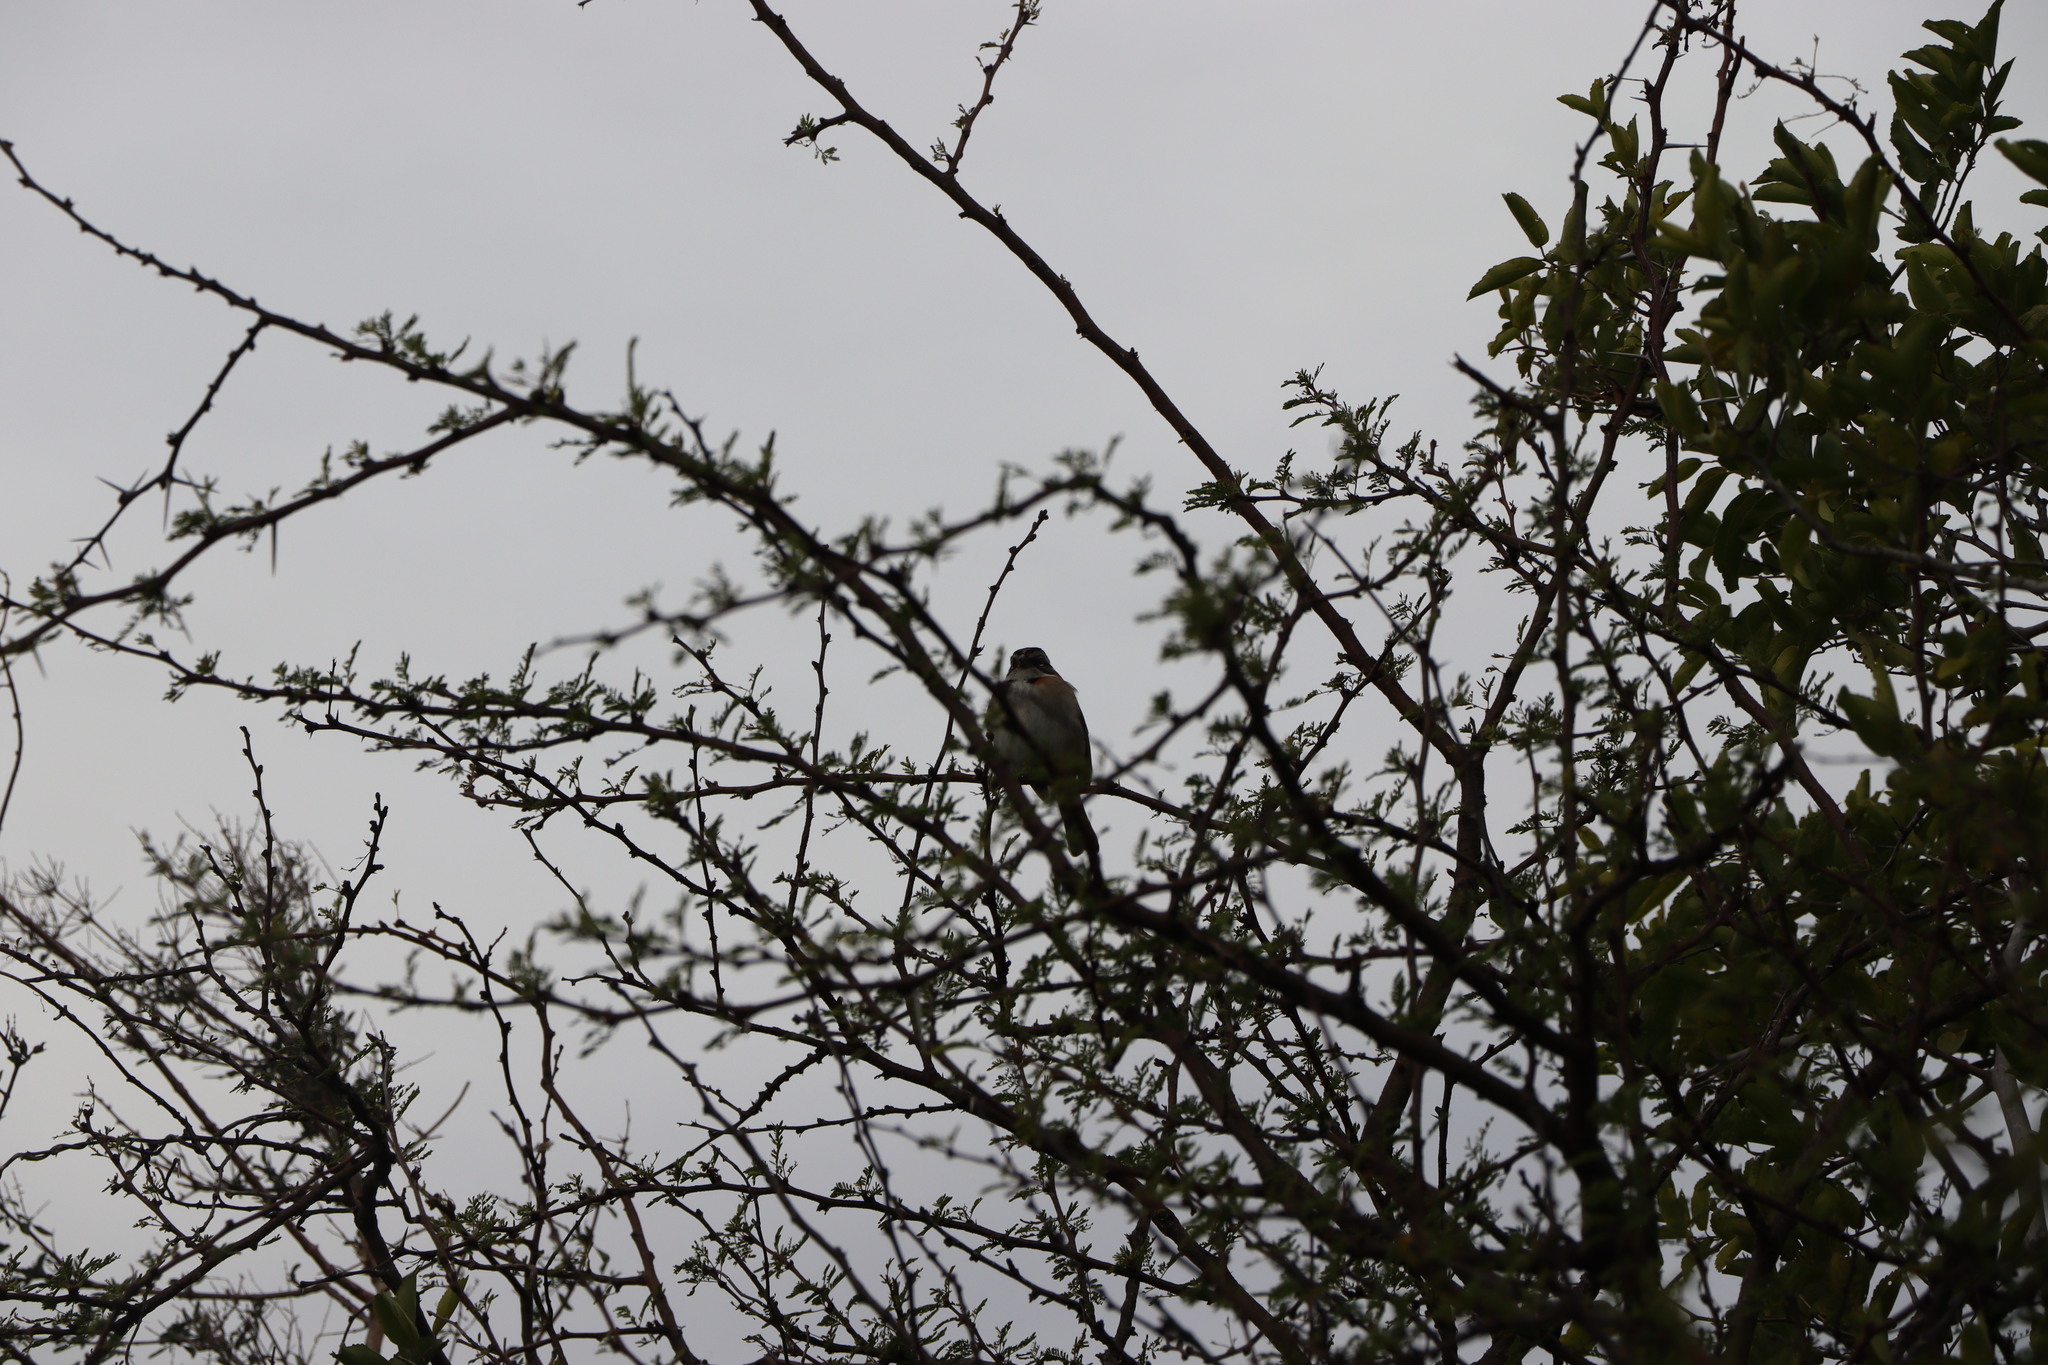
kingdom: Animalia
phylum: Chordata
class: Aves
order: Passeriformes
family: Passerellidae
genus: Zonotrichia
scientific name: Zonotrichia capensis
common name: Rufous-collared sparrow
